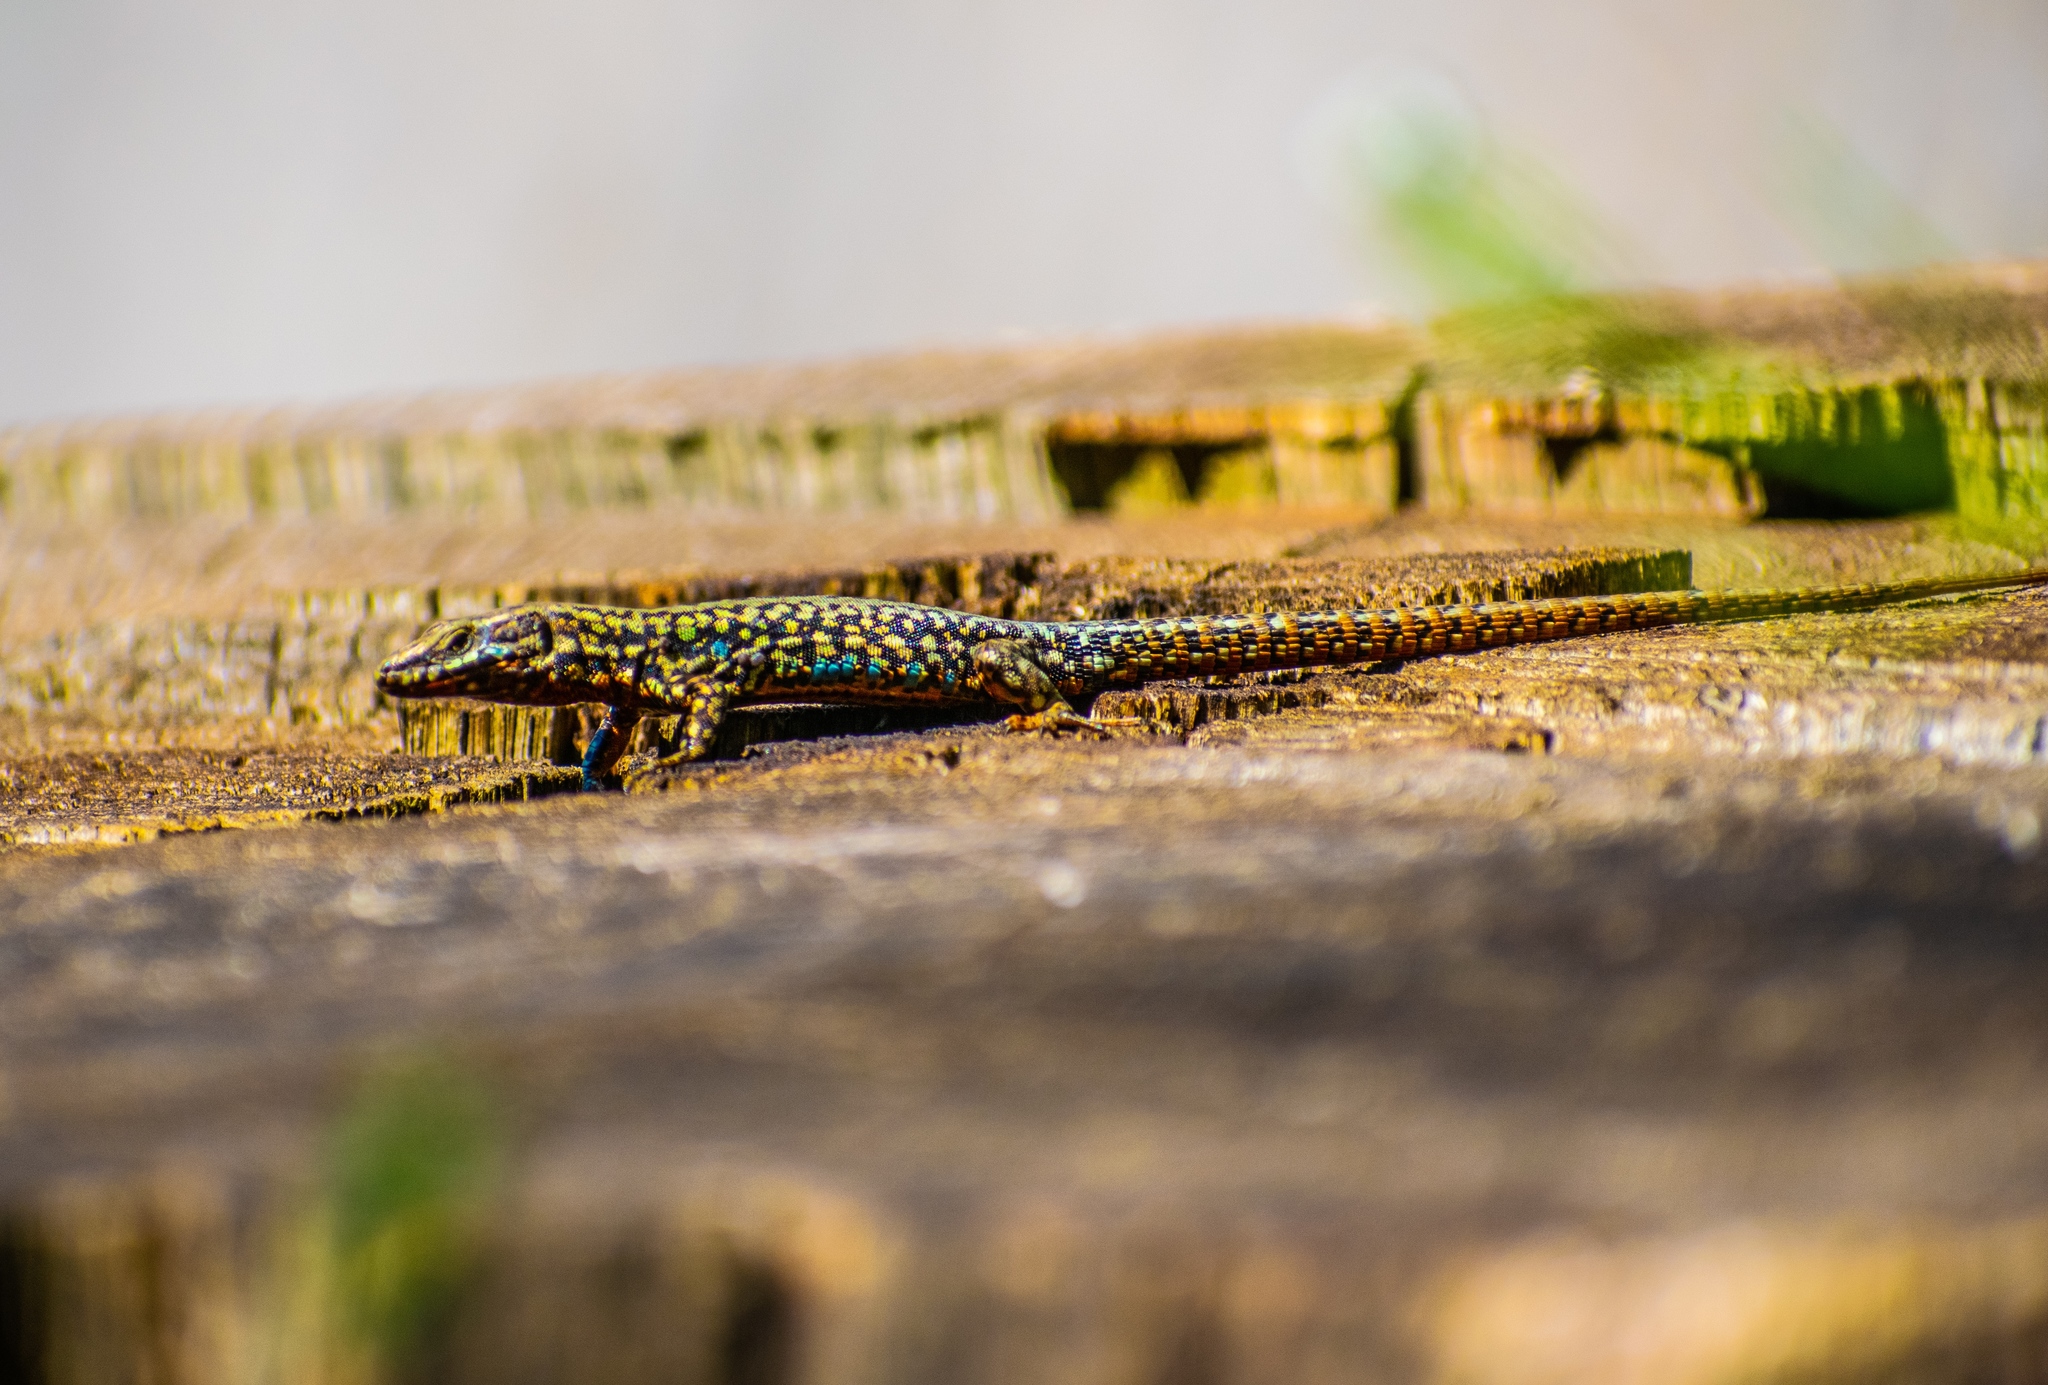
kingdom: Animalia
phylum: Chordata
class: Squamata
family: Lacertidae
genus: Podarcis
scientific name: Podarcis muralis
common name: Common wall lizard
